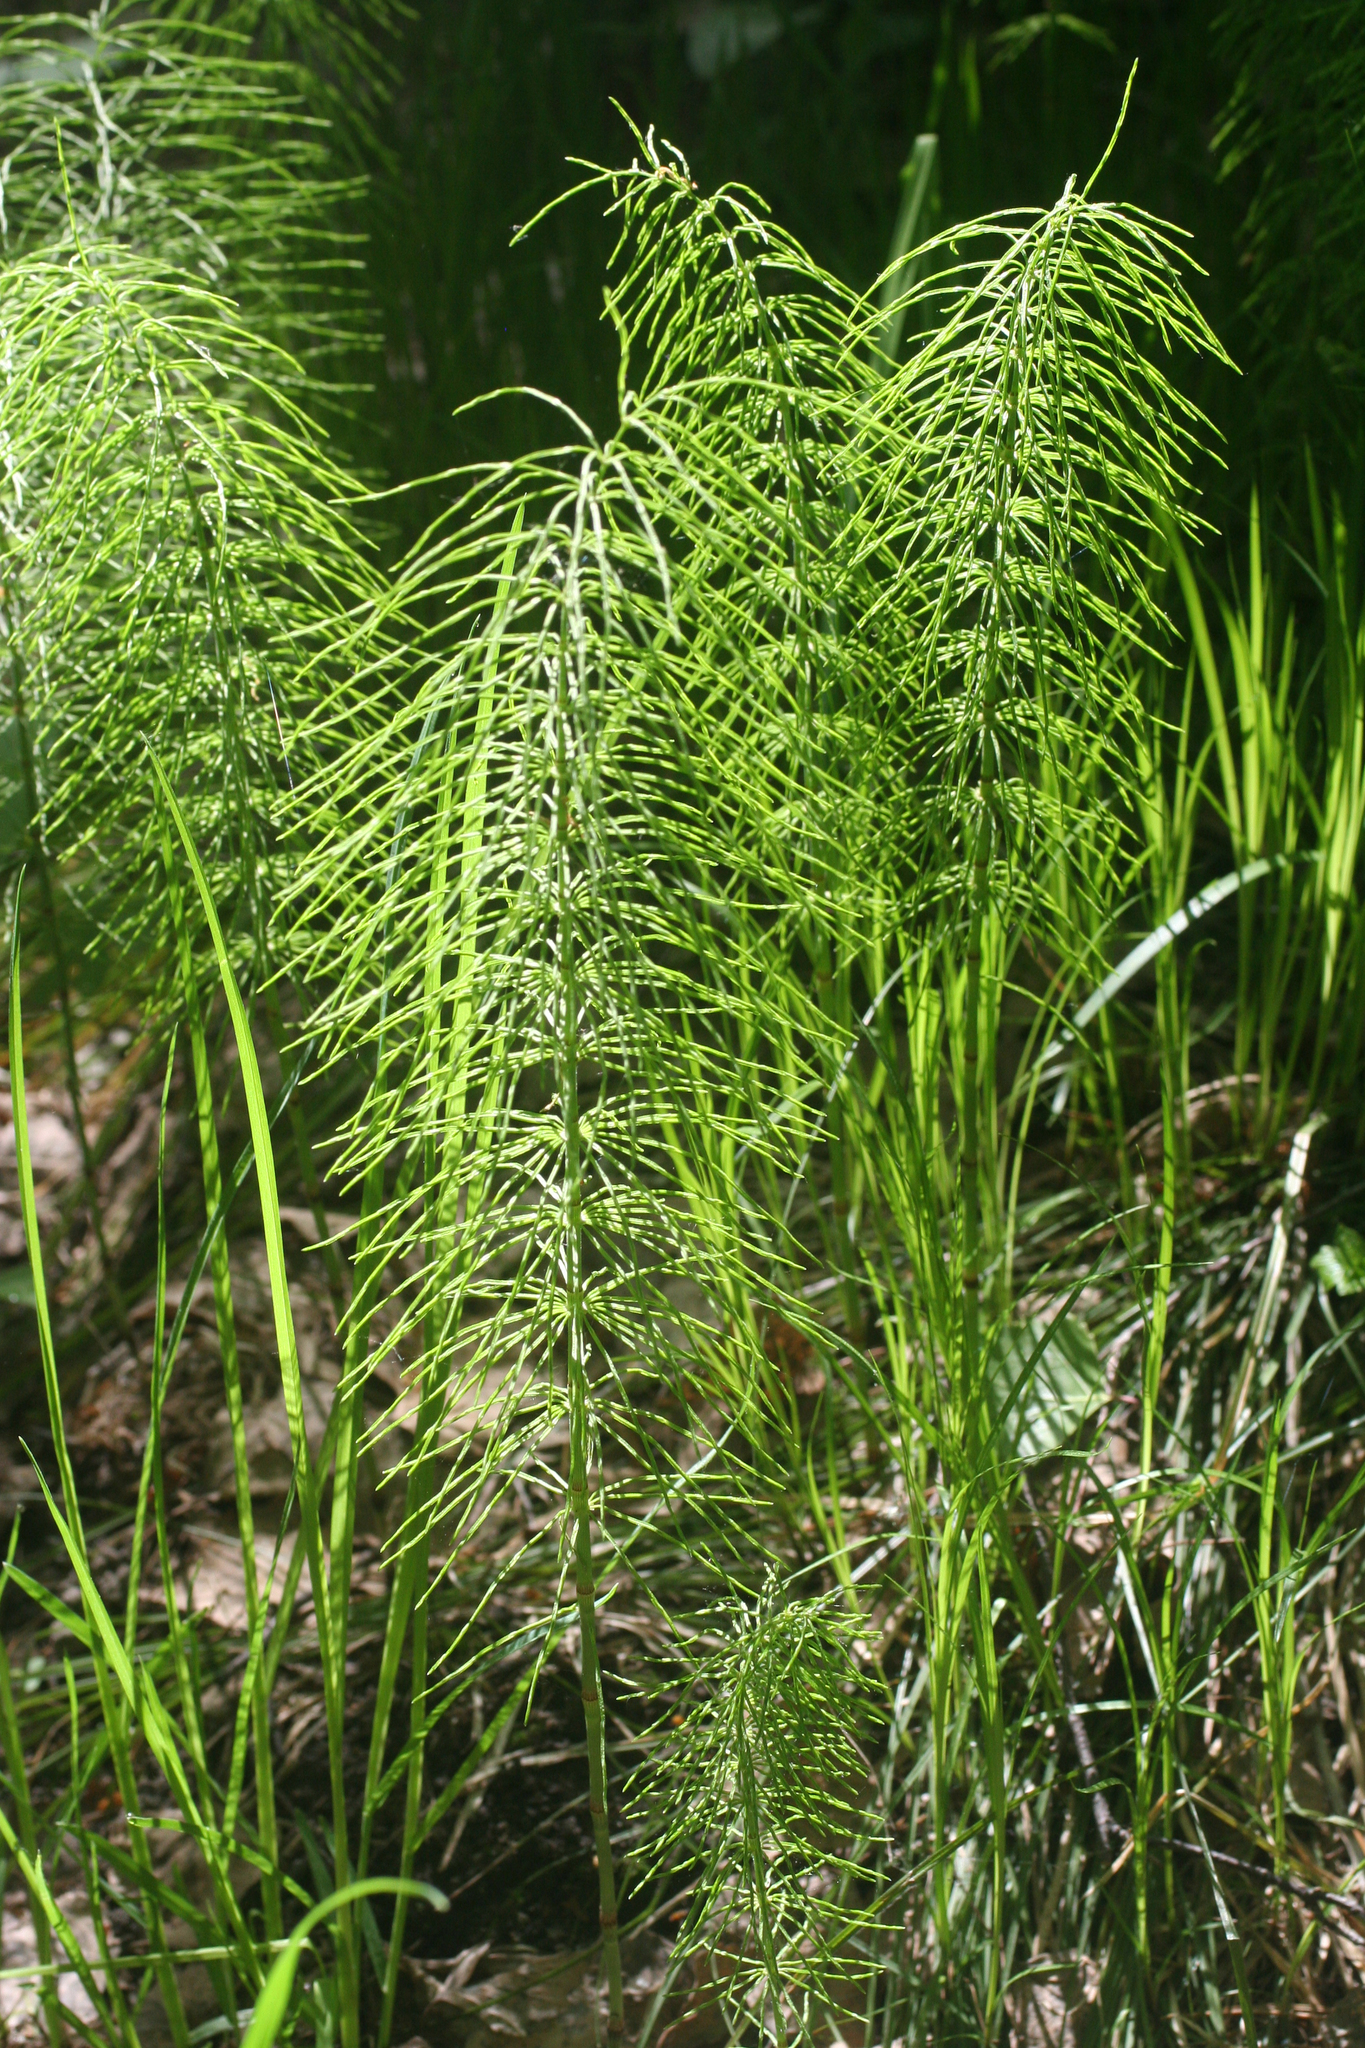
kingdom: Plantae
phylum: Tracheophyta
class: Polypodiopsida
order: Equisetales
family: Equisetaceae
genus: Equisetum
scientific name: Equisetum pratense
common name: Meadow horsetail
